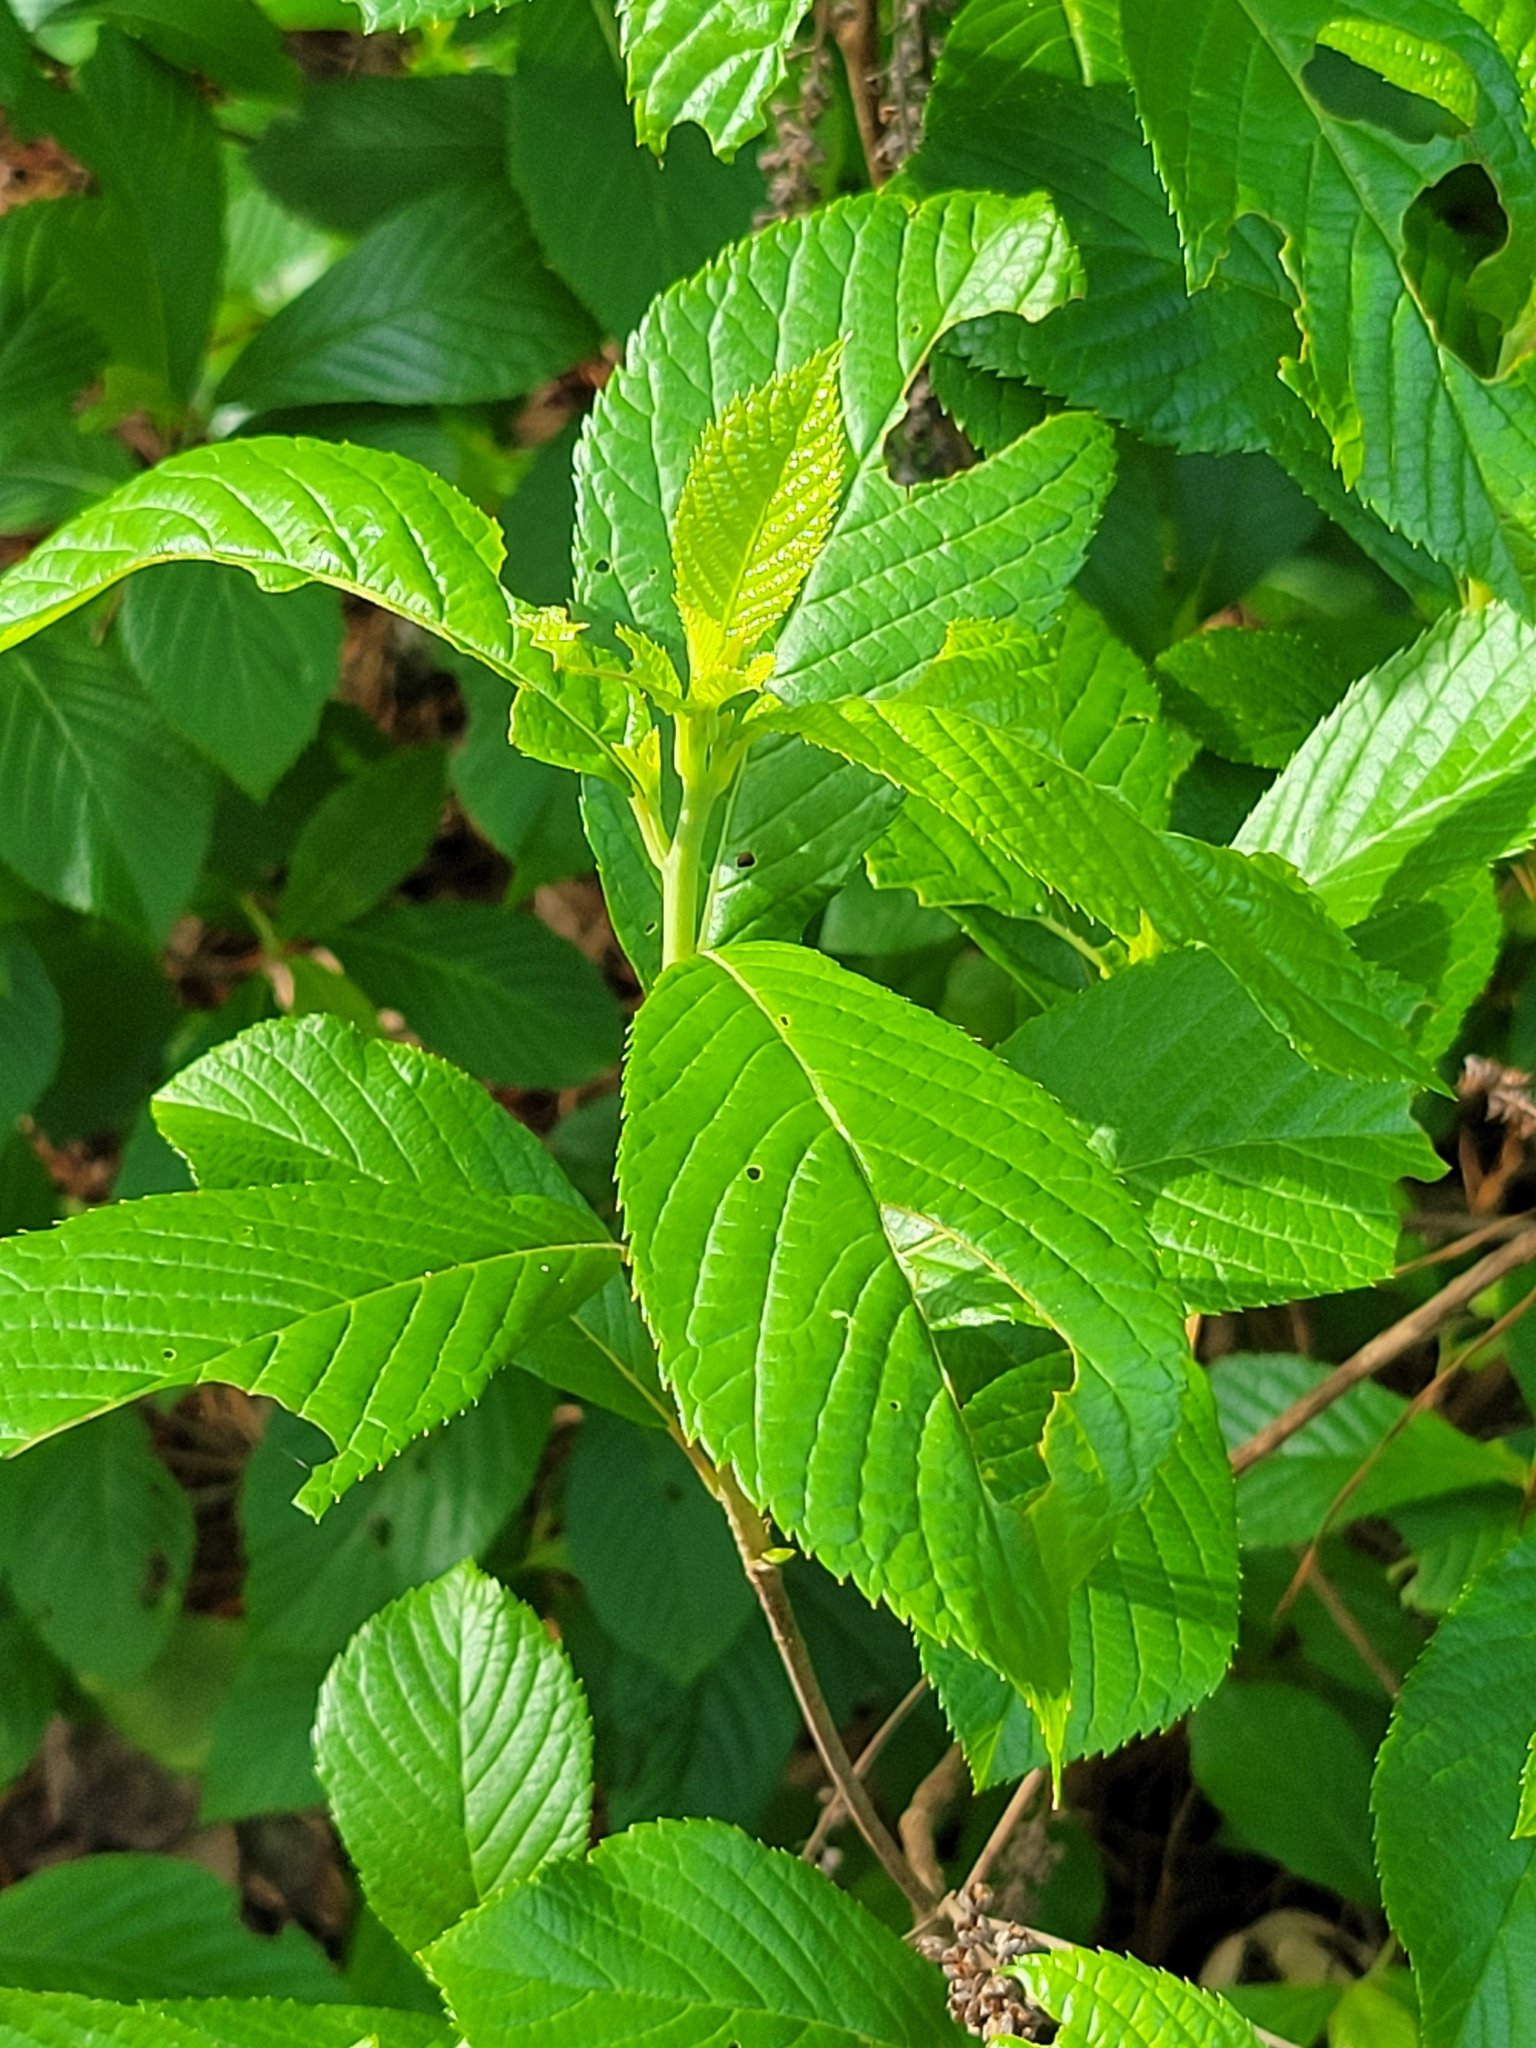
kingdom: Plantae
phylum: Tracheophyta
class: Magnoliopsida
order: Ericales
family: Clethraceae
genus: Clethra
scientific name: Clethra alnifolia
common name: Sweet pepperbush
